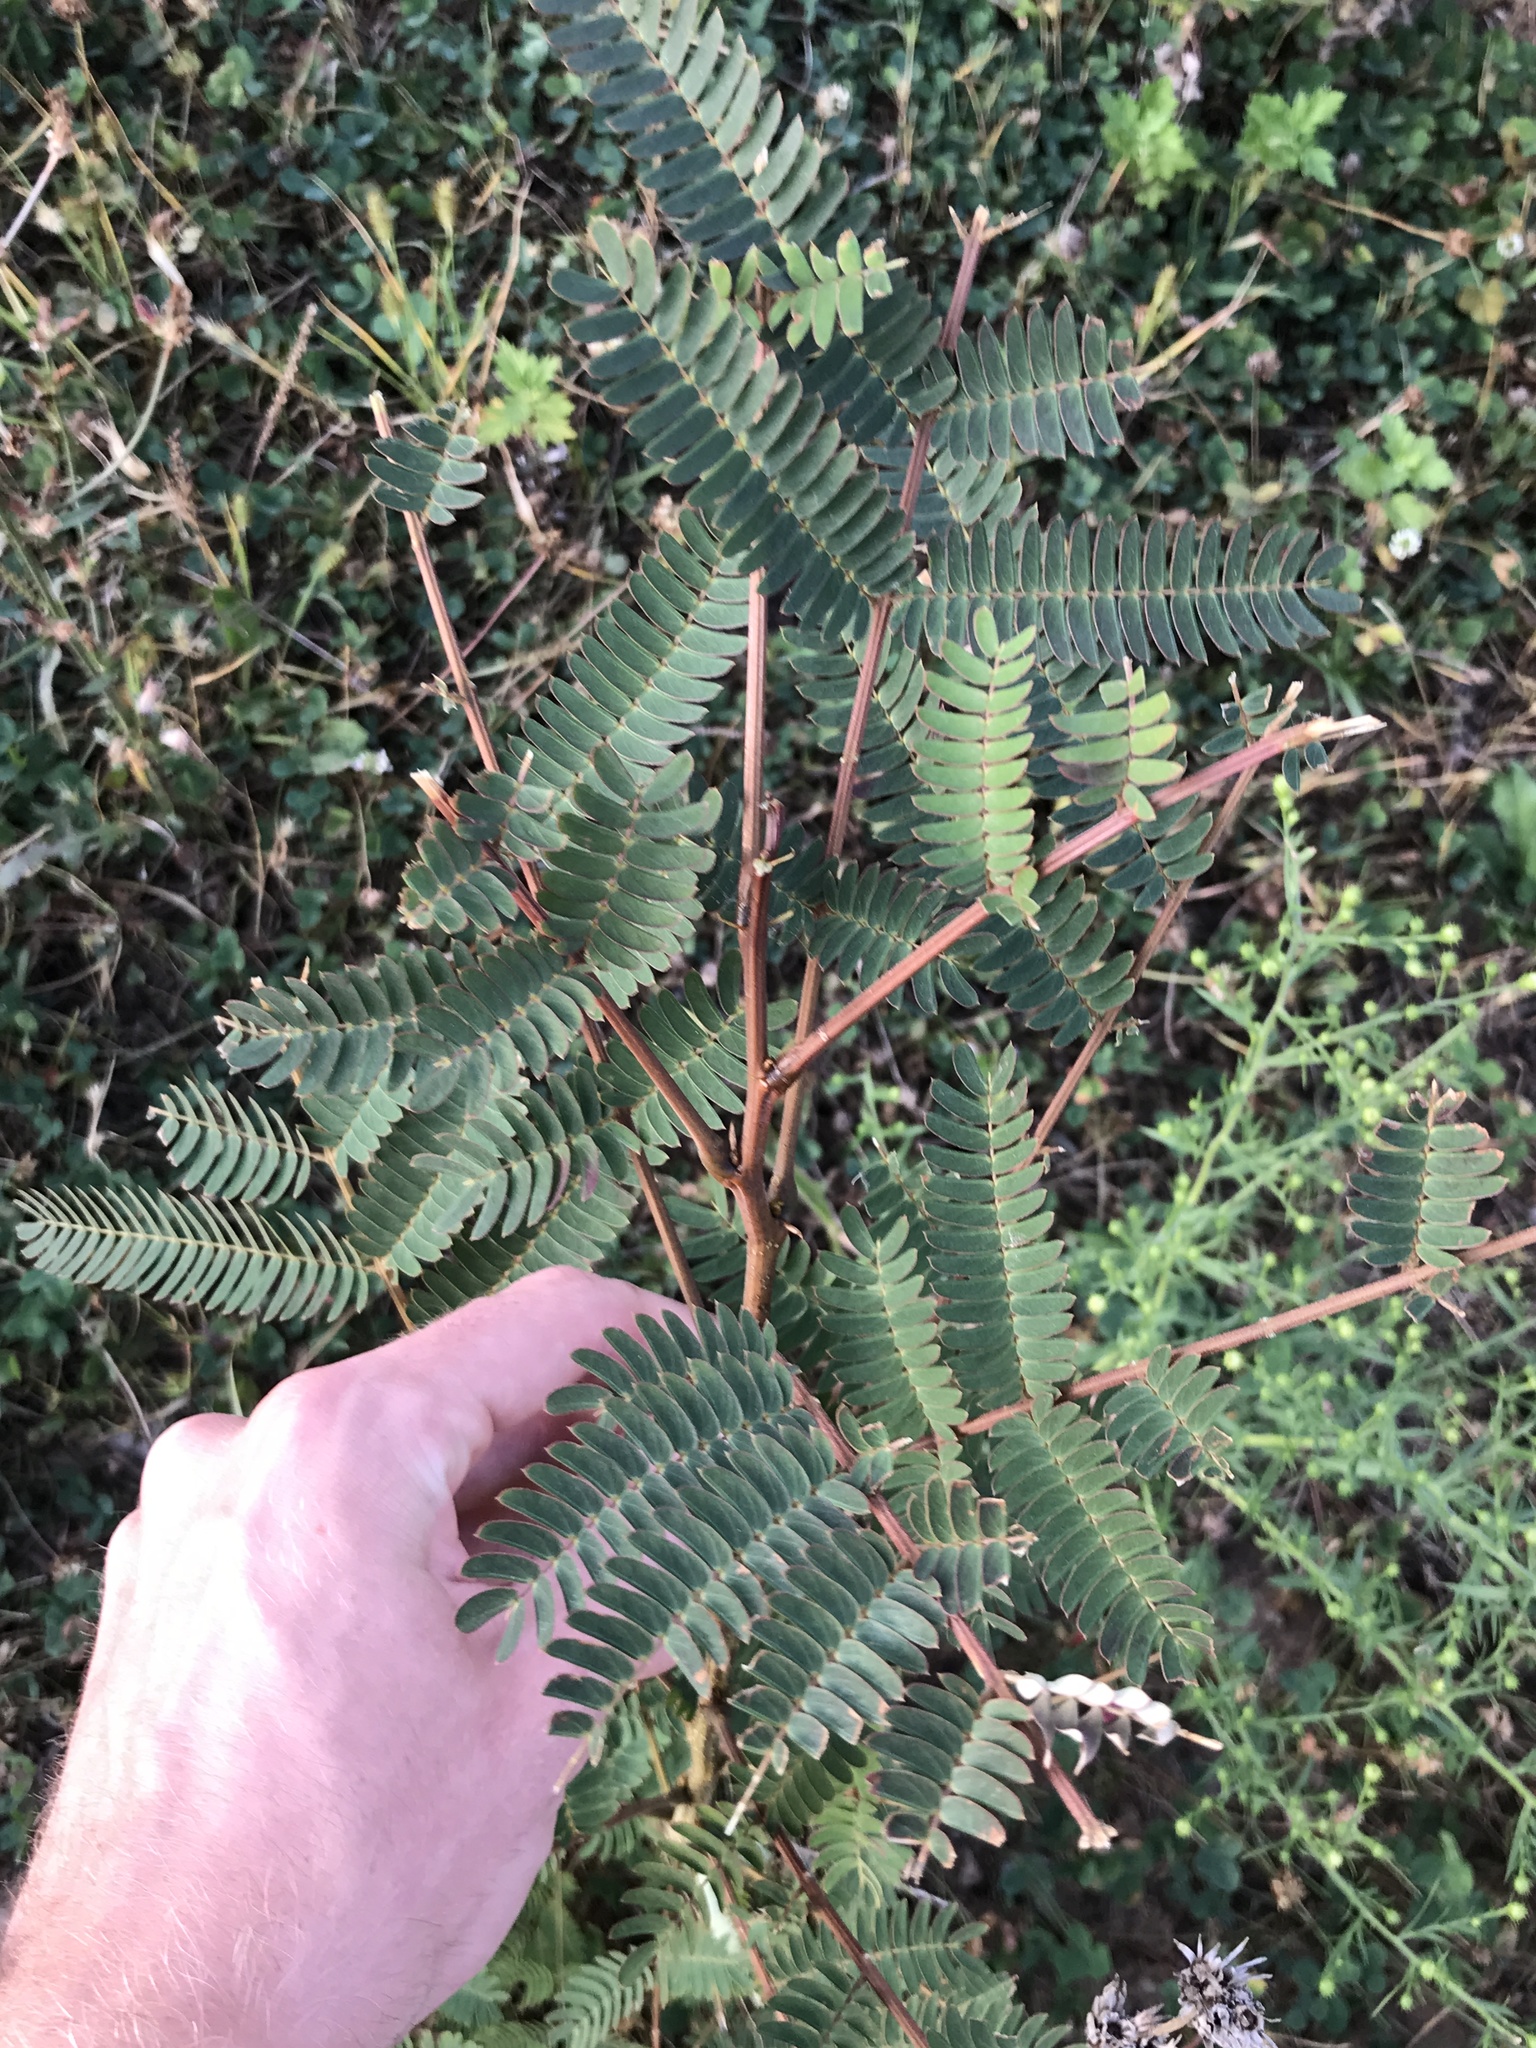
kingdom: Plantae
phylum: Tracheophyta
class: Magnoliopsida
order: Fabales
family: Fabaceae
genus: Albizia
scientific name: Albizia julibrissin
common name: Silktree
